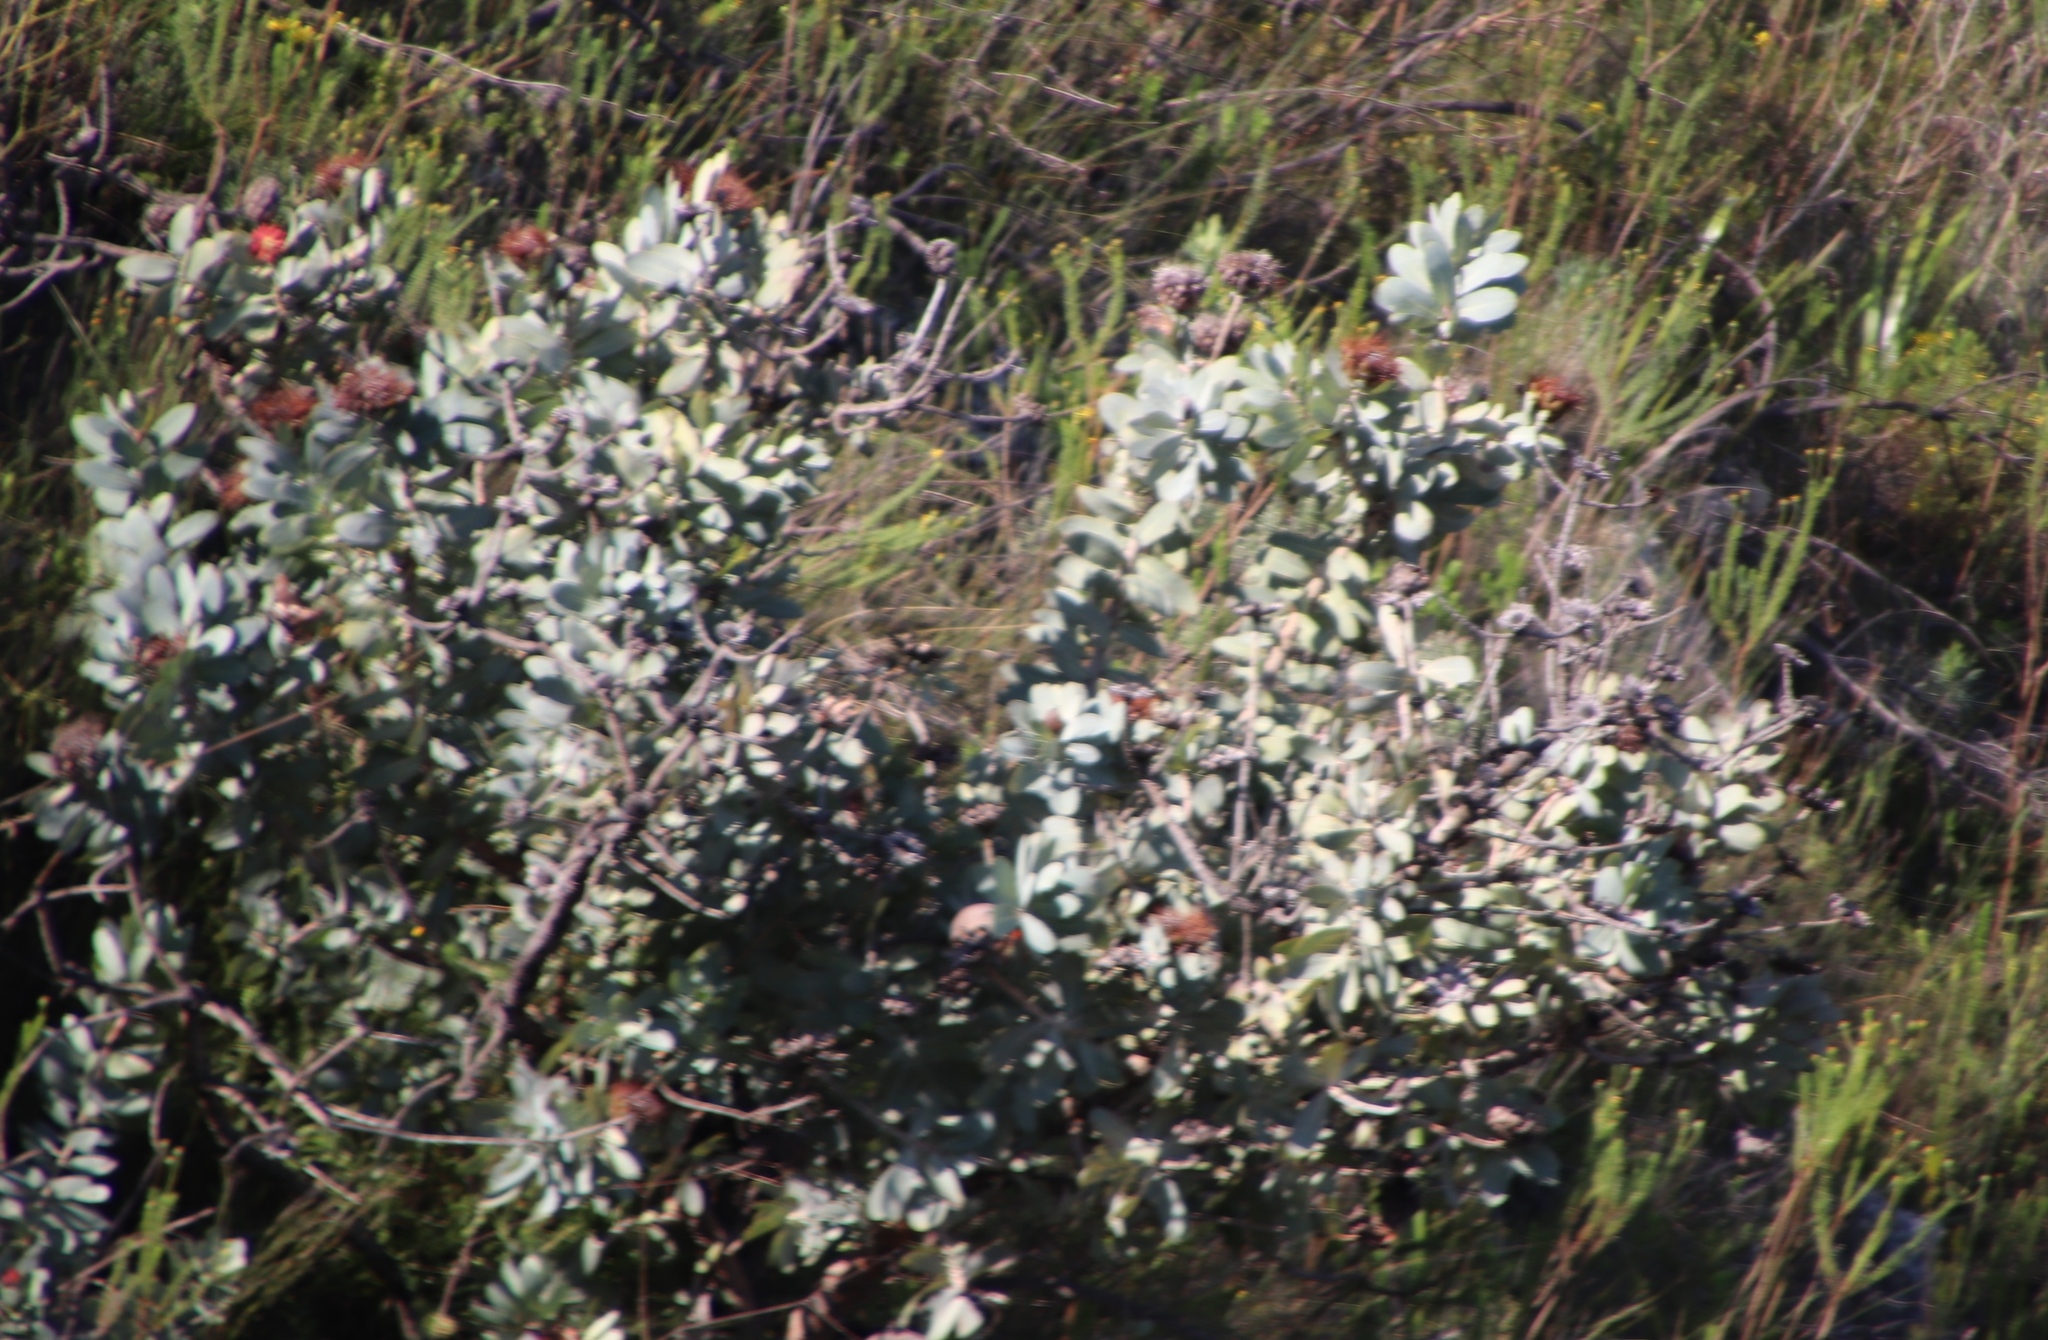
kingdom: Plantae
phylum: Tracheophyta
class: Magnoliopsida
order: Proteales
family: Proteaceae
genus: Protea
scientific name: Protea nitida
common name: Tree protea
